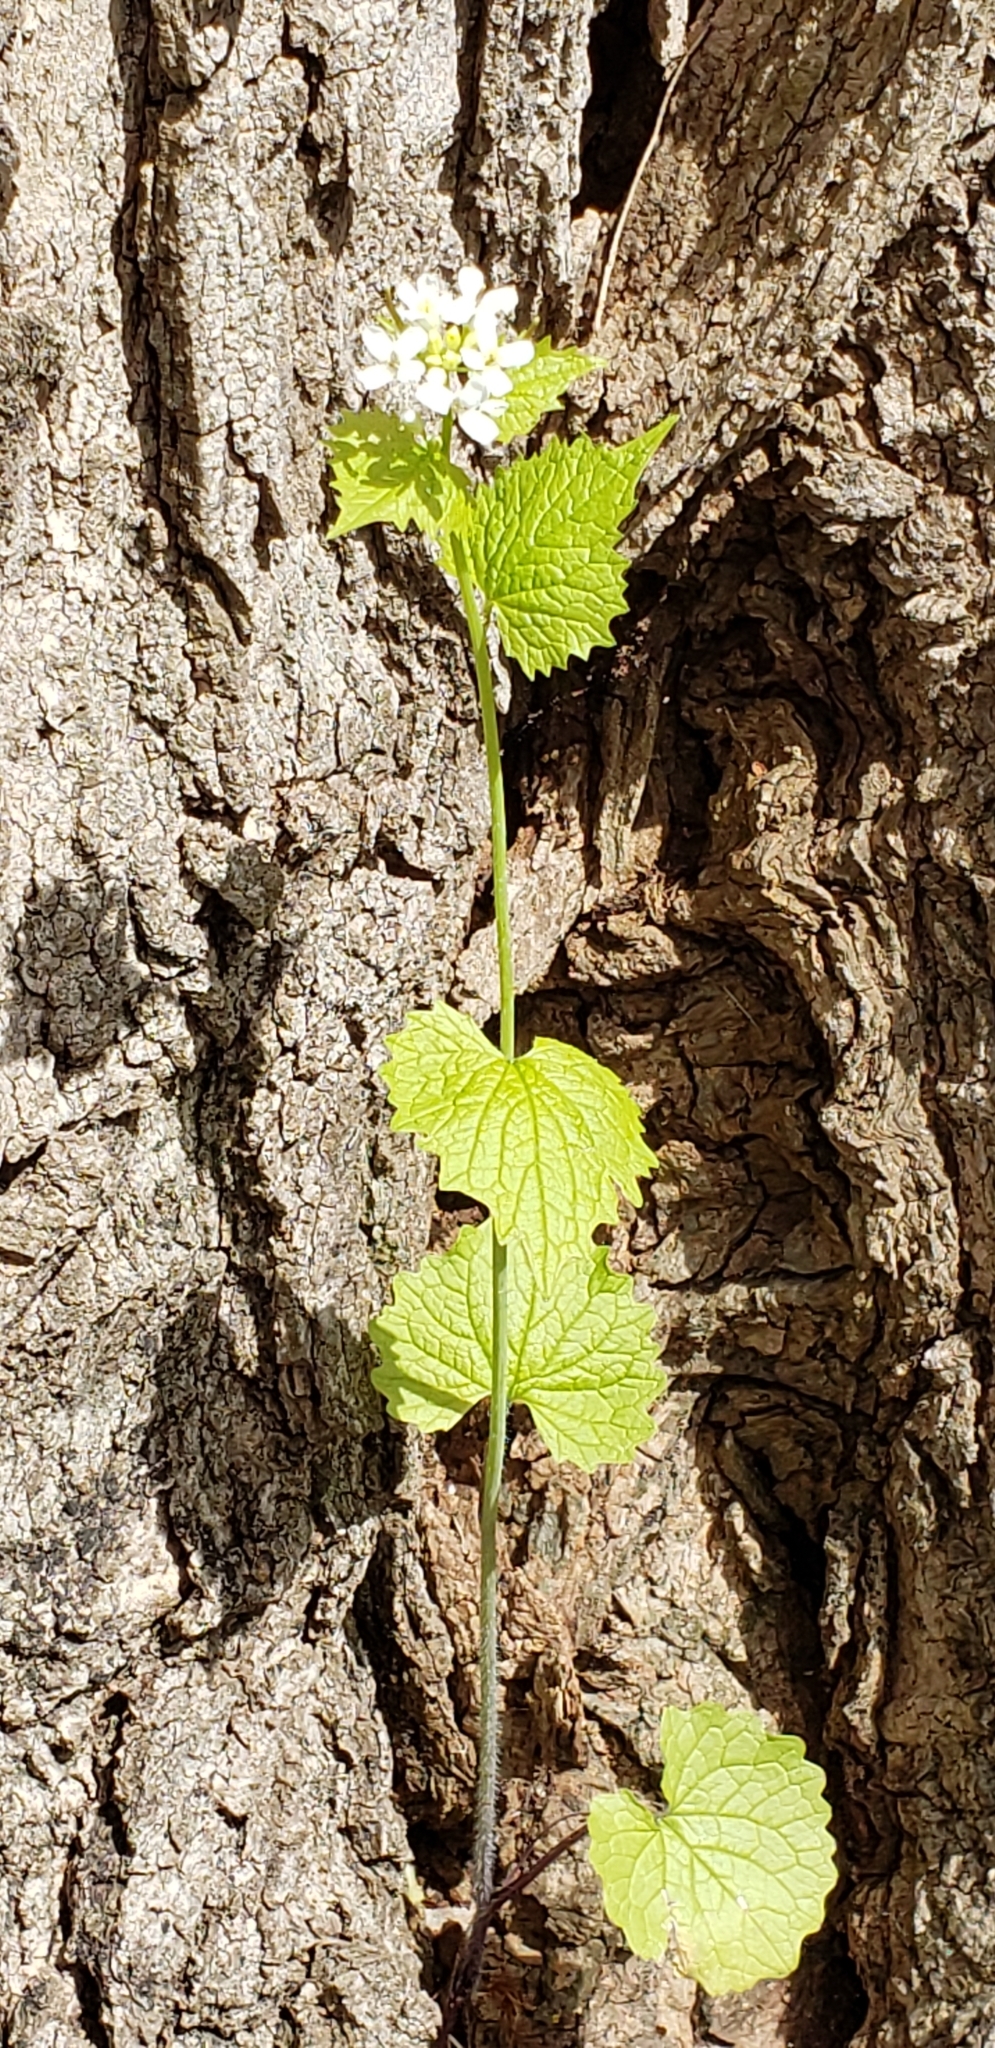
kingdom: Plantae
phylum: Tracheophyta
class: Magnoliopsida
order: Brassicales
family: Brassicaceae
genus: Alliaria
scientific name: Alliaria petiolata
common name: Garlic mustard
